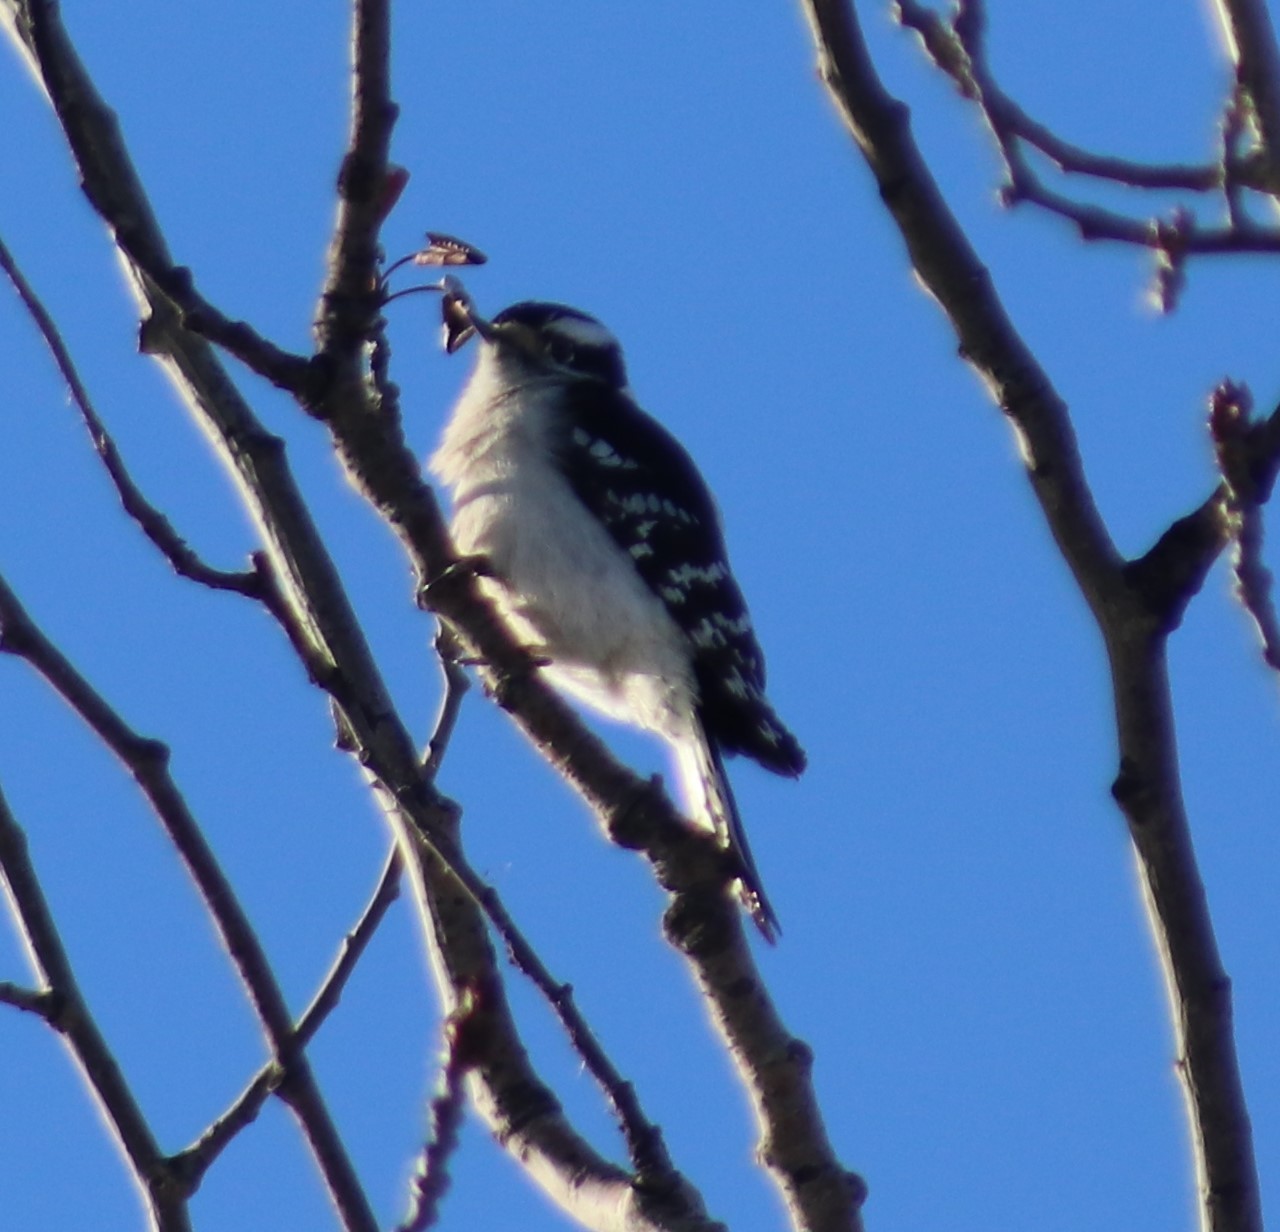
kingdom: Animalia
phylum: Chordata
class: Aves
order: Piciformes
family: Picidae
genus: Dryobates
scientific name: Dryobates pubescens
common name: Downy woodpecker
